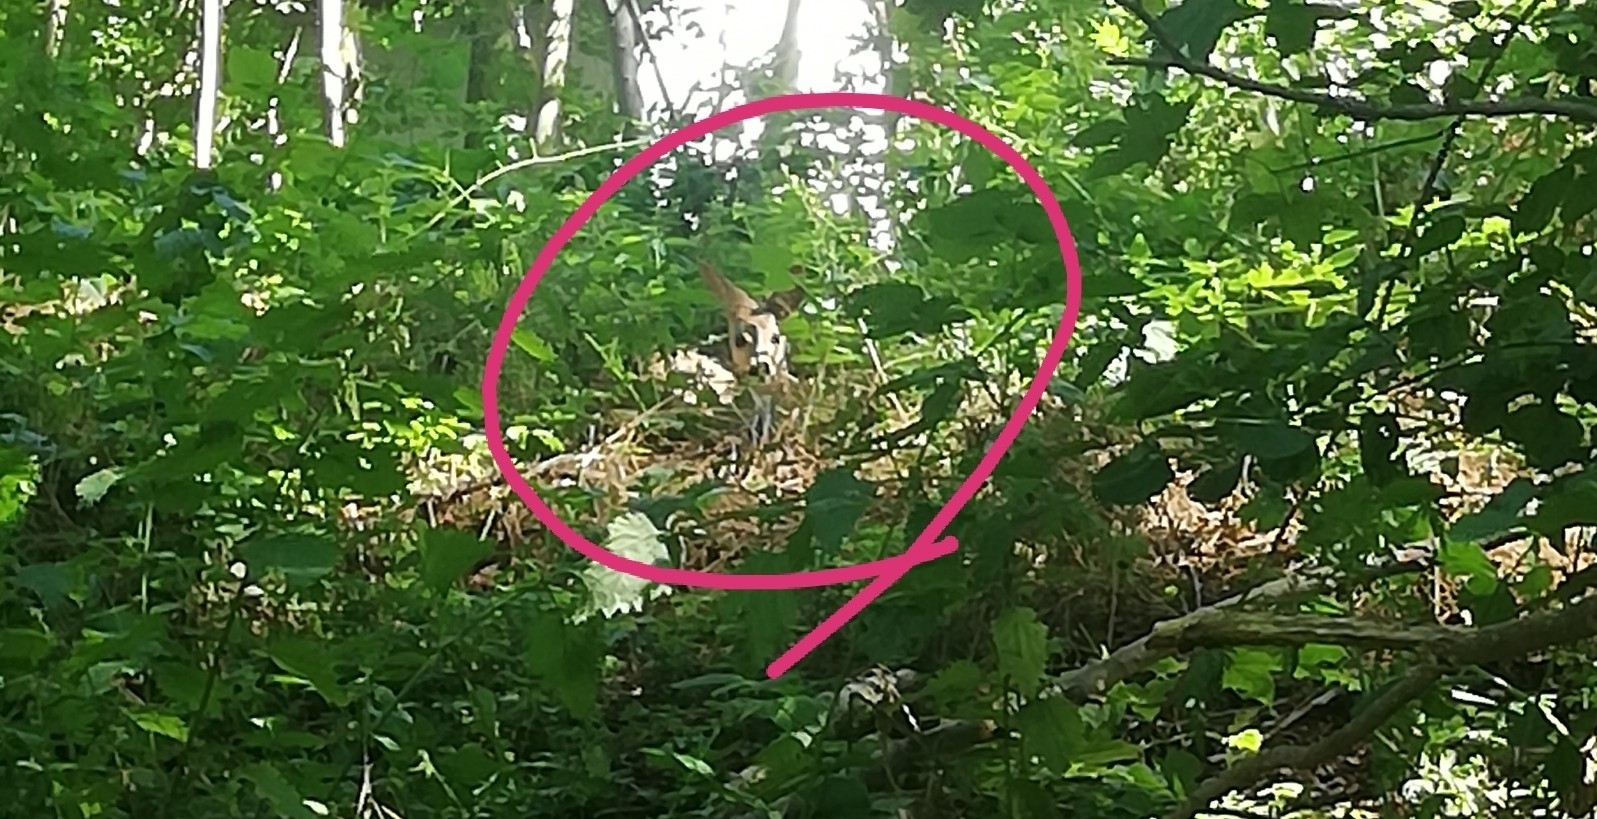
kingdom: Animalia
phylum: Chordata
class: Mammalia
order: Artiodactyla
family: Cervidae
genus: Capreolus
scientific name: Capreolus capreolus
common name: Western roe deer
